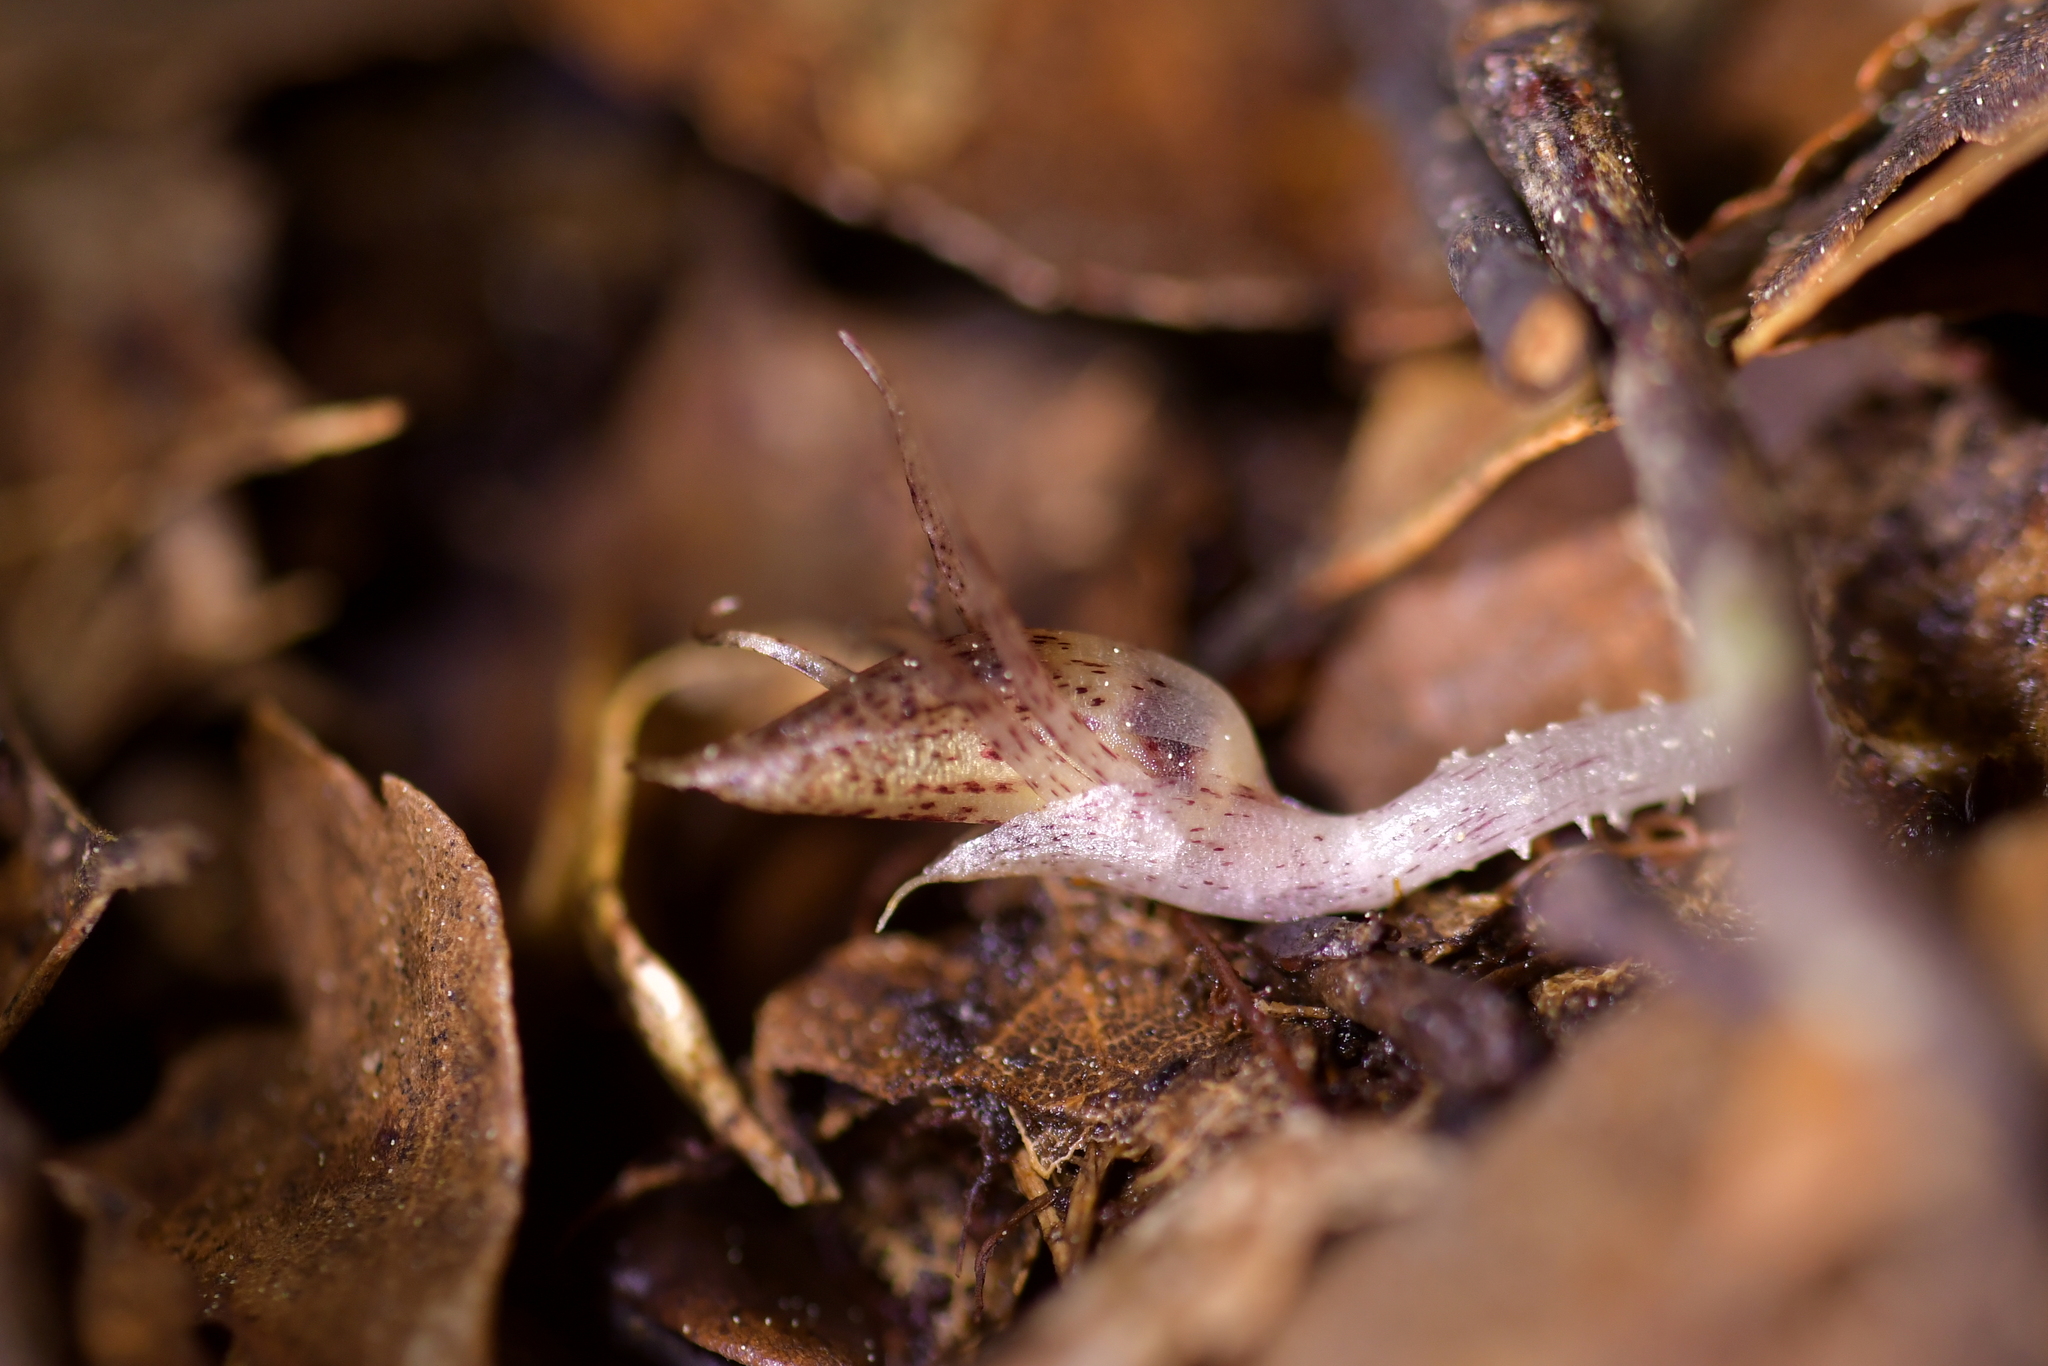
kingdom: Plantae
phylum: Tracheophyta
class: Liliopsida
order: Asparagales
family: Orchidaceae
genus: Corybas
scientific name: Corybas cryptanthus
